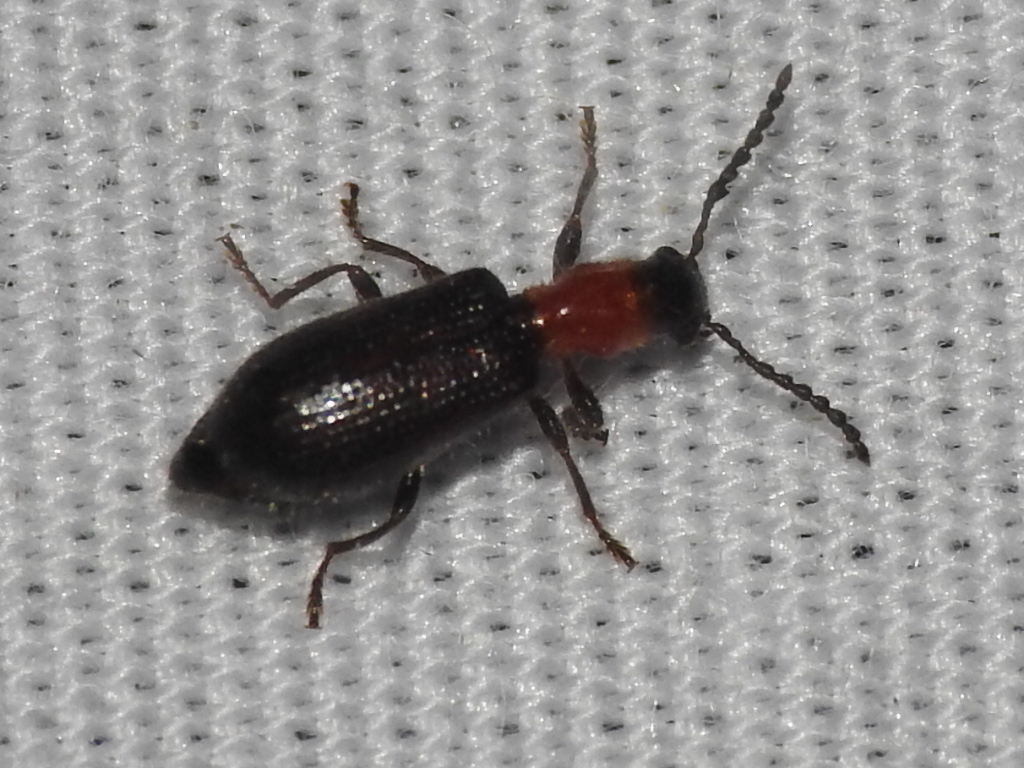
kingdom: Animalia
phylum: Arthropoda
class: Insecta
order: Coleoptera
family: Cleridae
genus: Cymatoderella
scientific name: Cymatoderella collaris
